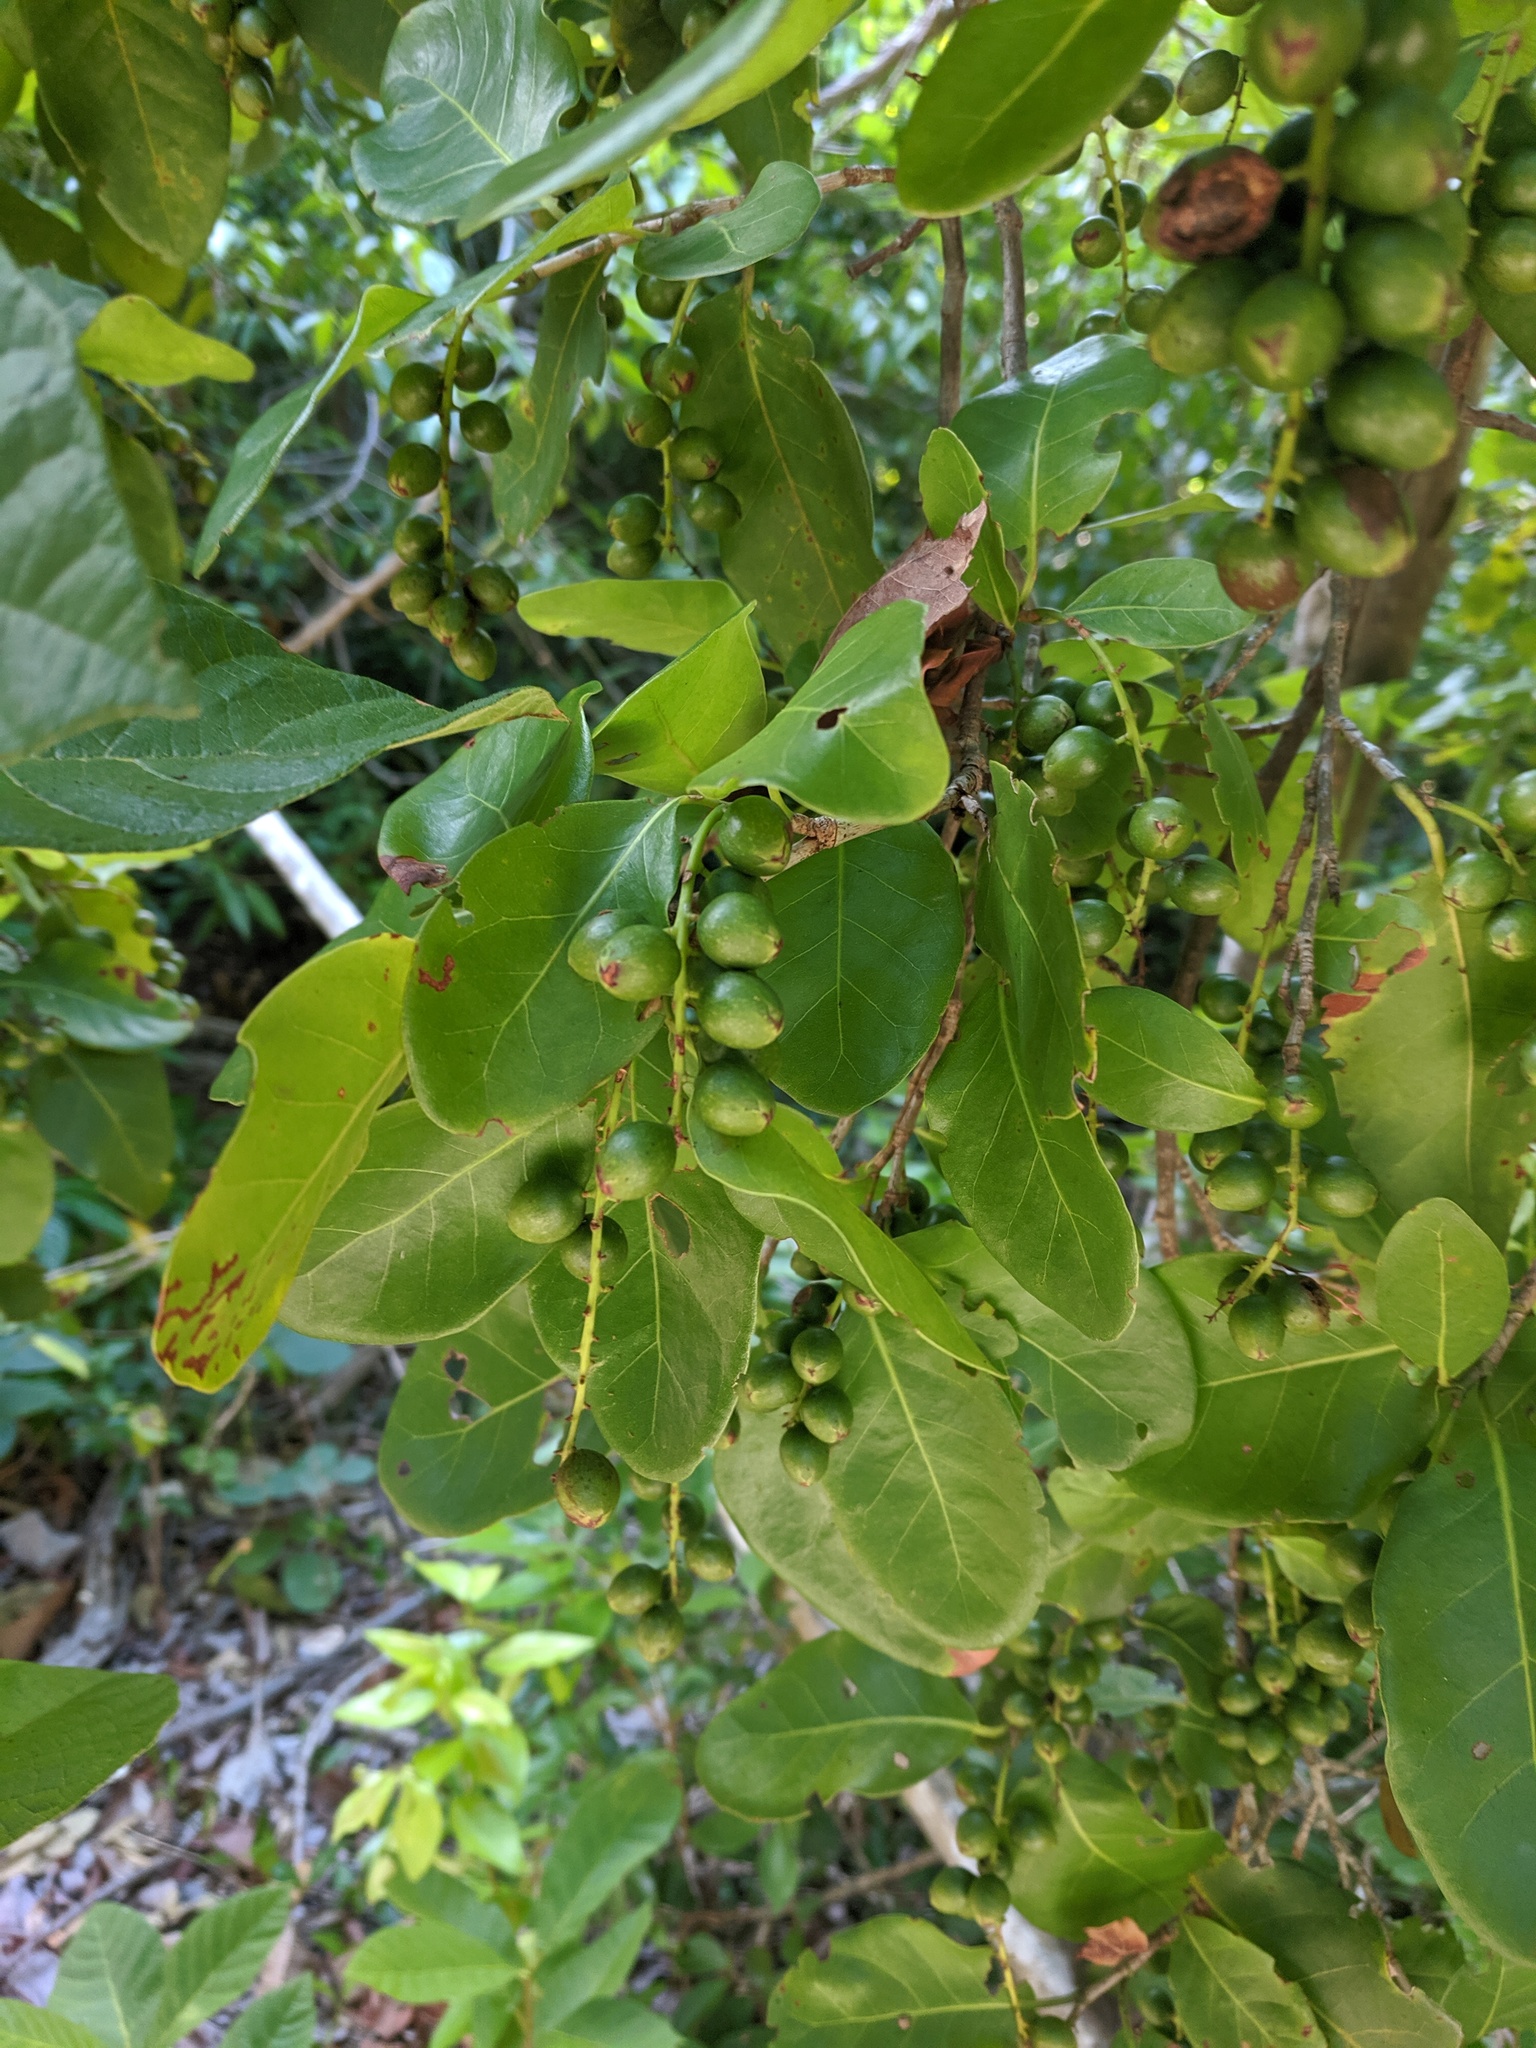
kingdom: Plantae
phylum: Tracheophyta
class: Magnoliopsida
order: Caryophyllales
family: Polygonaceae
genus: Coccoloba
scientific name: Coccoloba diversifolia
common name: Pigeon-plum
